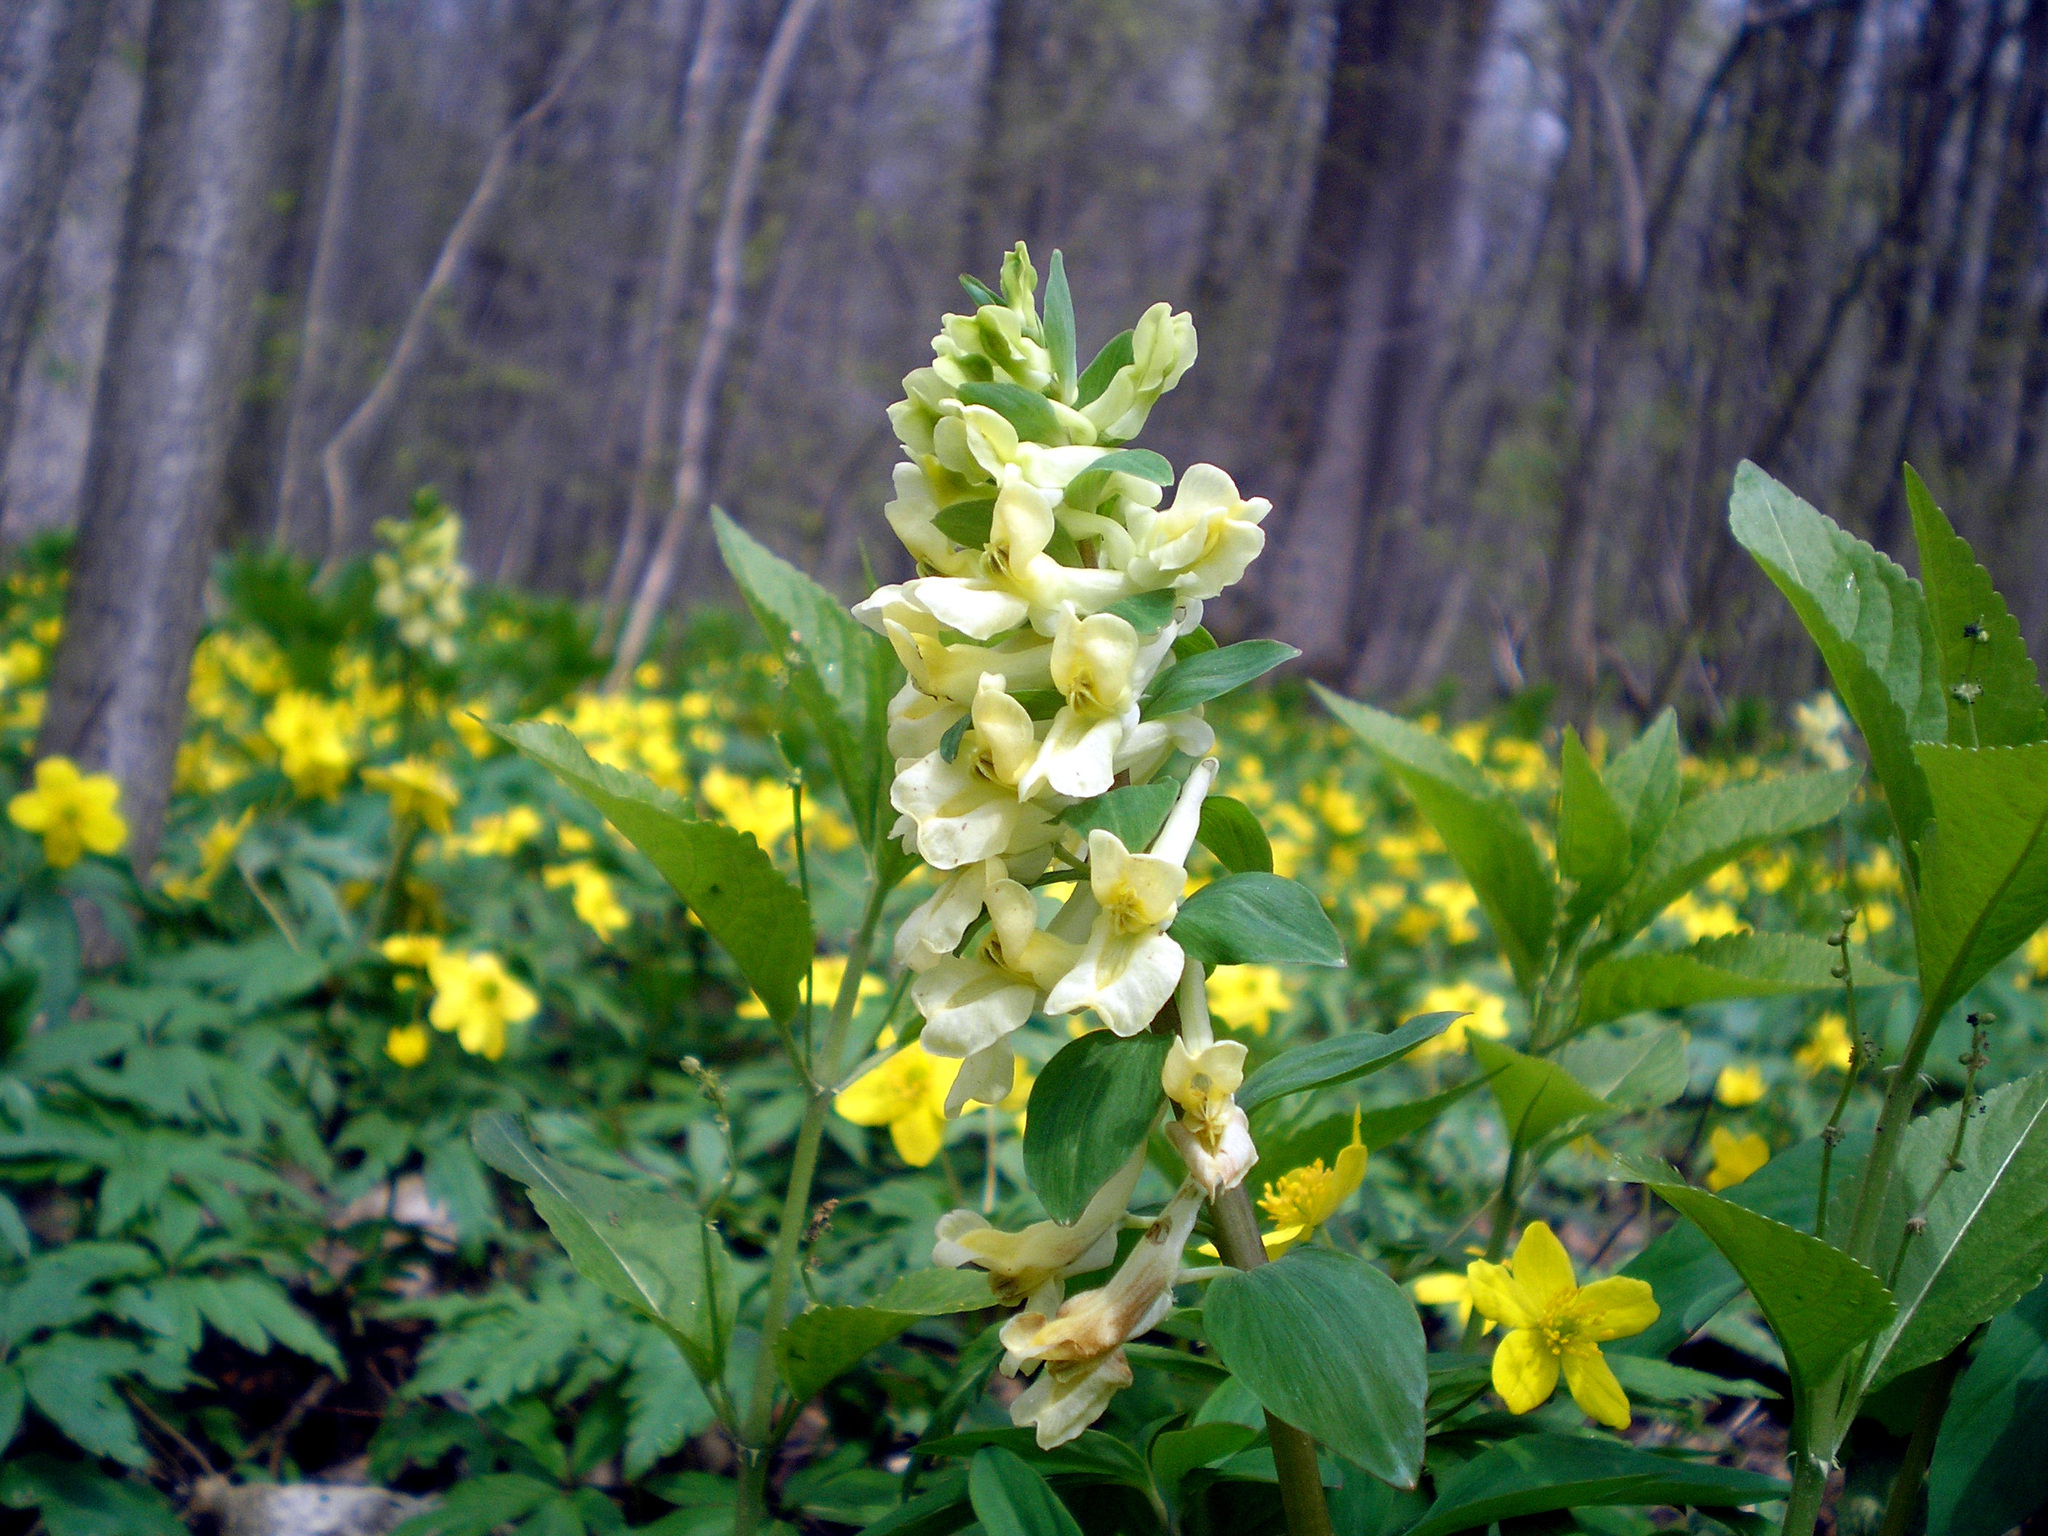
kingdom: Plantae
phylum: Tracheophyta
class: Magnoliopsida
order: Ranunculales
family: Papaveraceae
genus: Corydalis
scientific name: Corydalis cava
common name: Hollowroot
